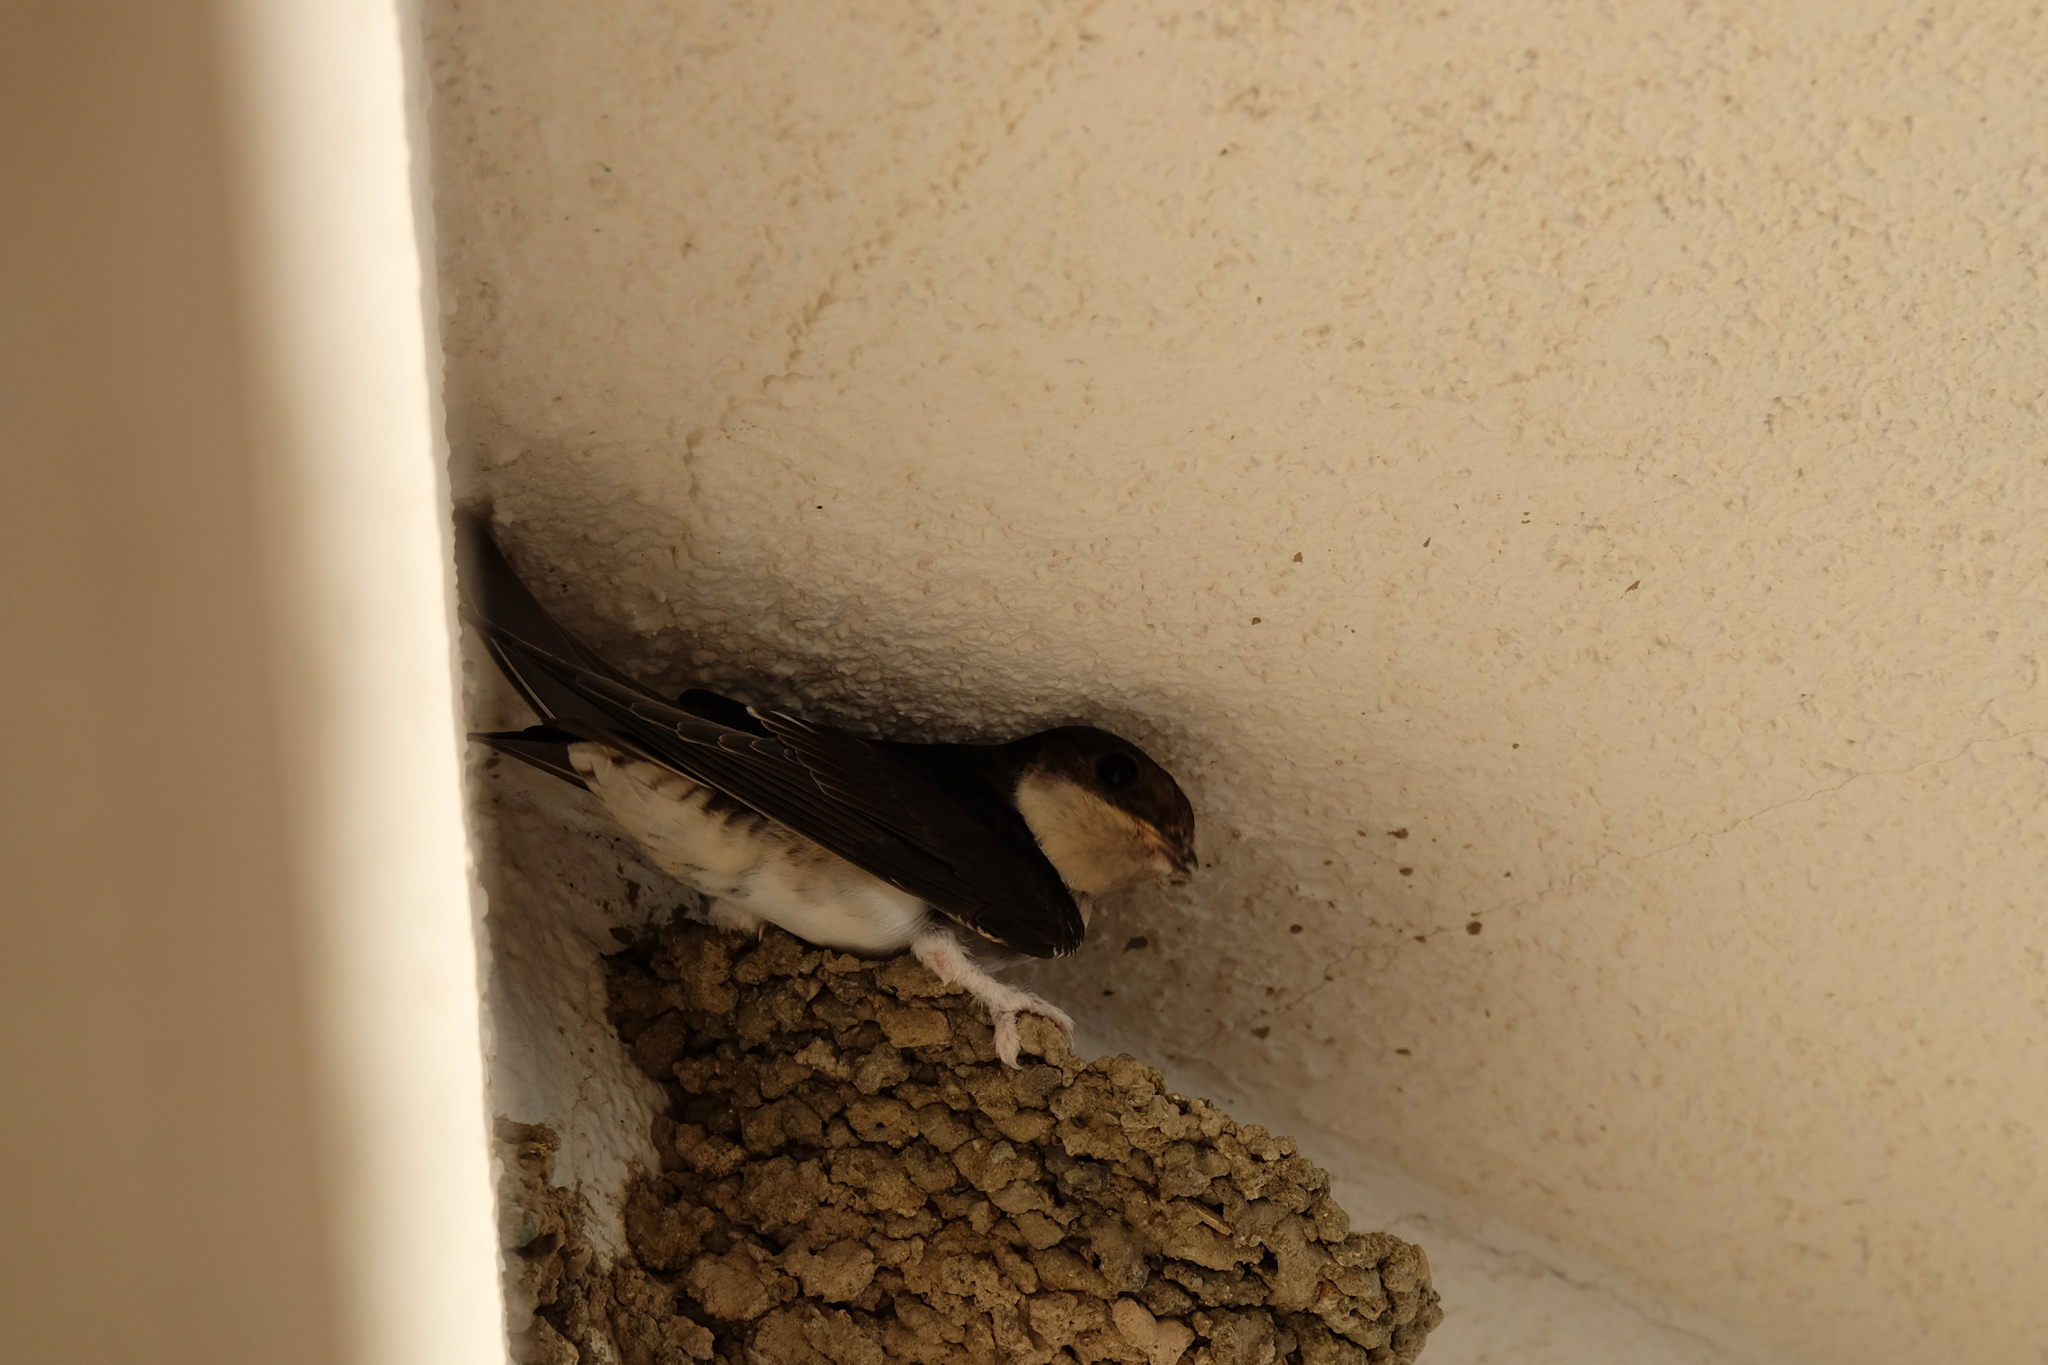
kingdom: Animalia
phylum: Chordata
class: Aves
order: Passeriformes
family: Hirundinidae
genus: Delichon
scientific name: Delichon urbicum
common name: Common house martin
